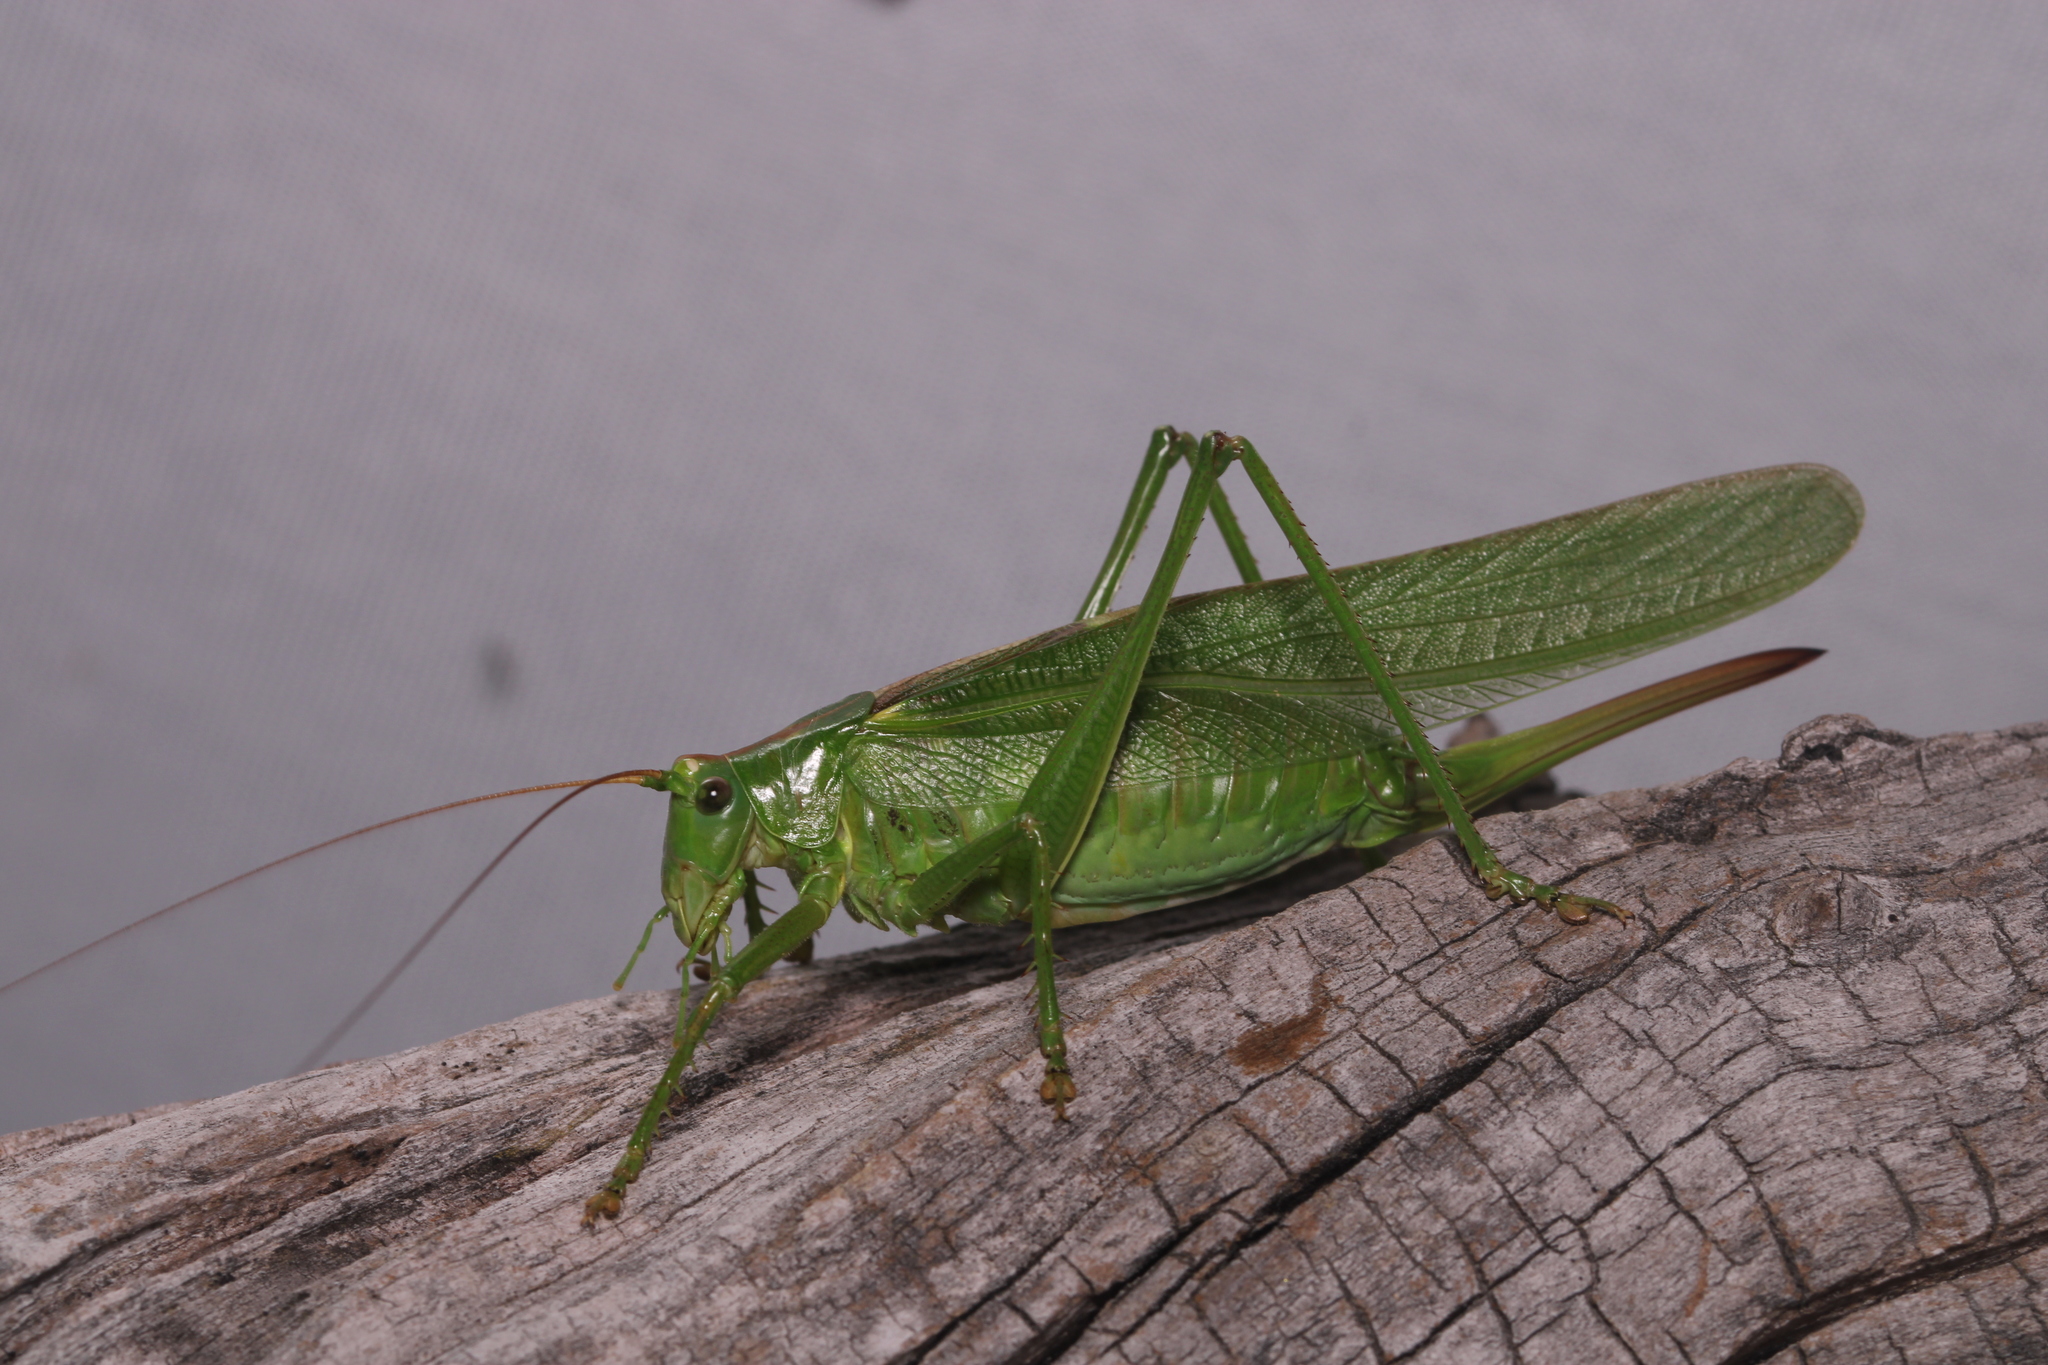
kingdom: Animalia
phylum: Arthropoda
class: Insecta
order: Orthoptera
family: Tettigoniidae
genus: Tettigonia
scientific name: Tettigonia viridissima
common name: Great green bush-cricket
